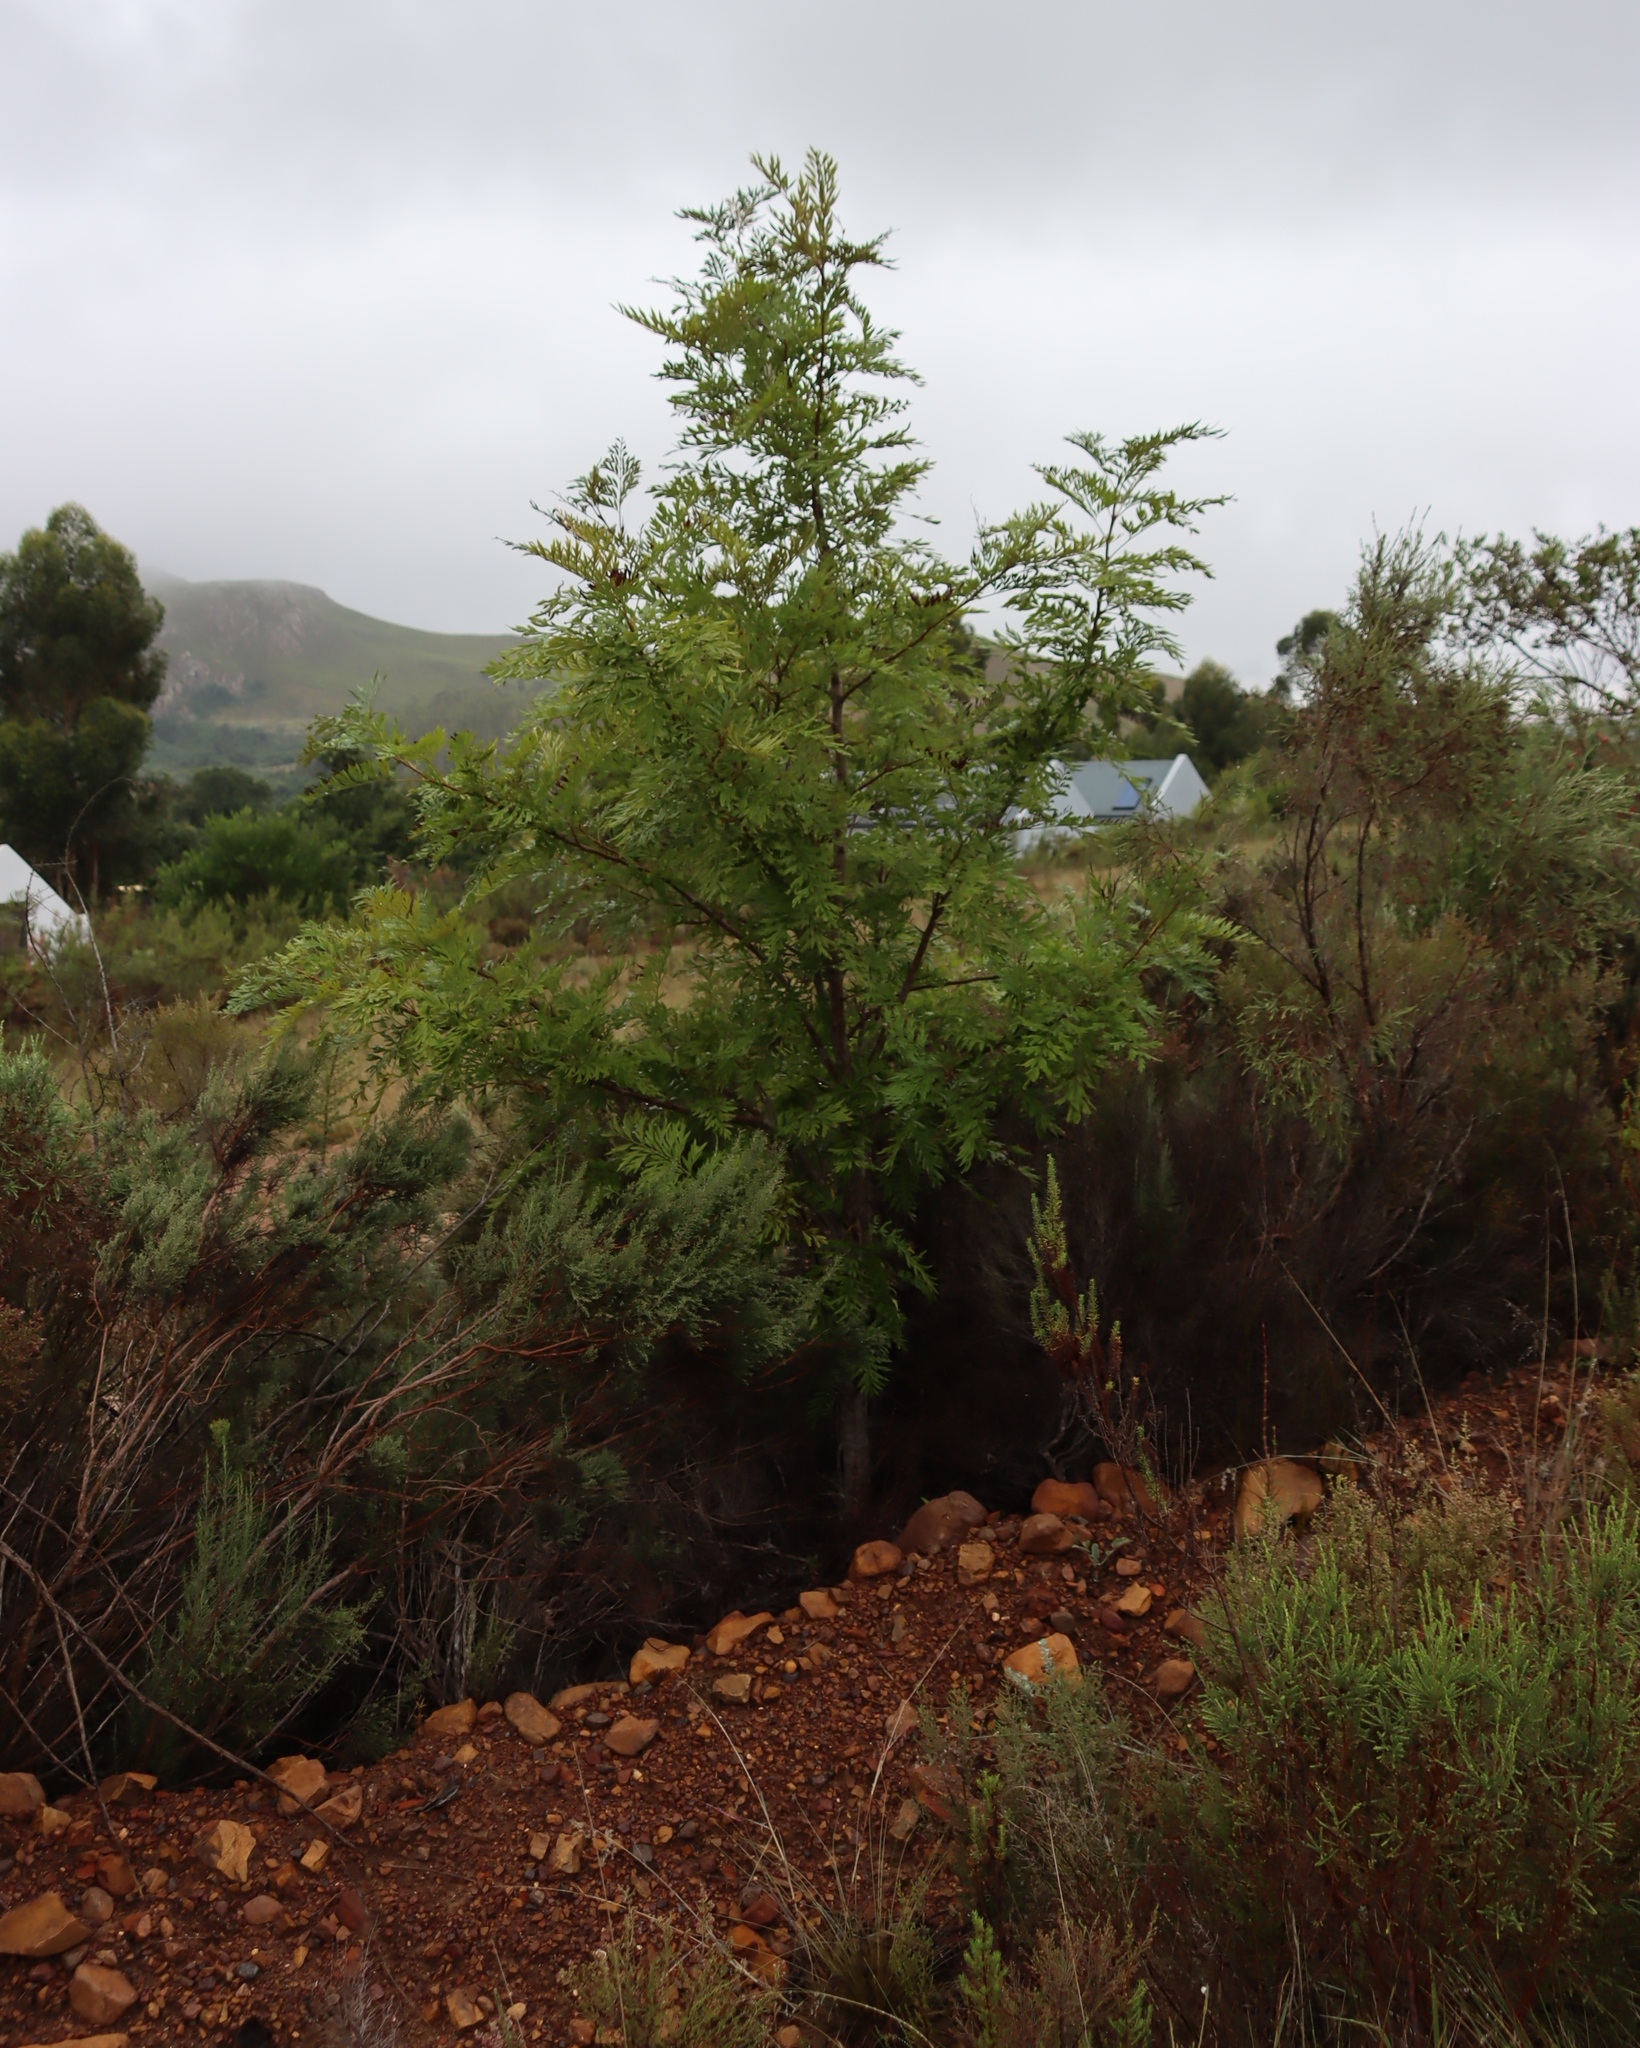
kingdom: Plantae
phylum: Tracheophyta
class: Magnoliopsida
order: Proteales
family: Proteaceae
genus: Grevillea
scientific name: Grevillea robusta
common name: Silkoak
